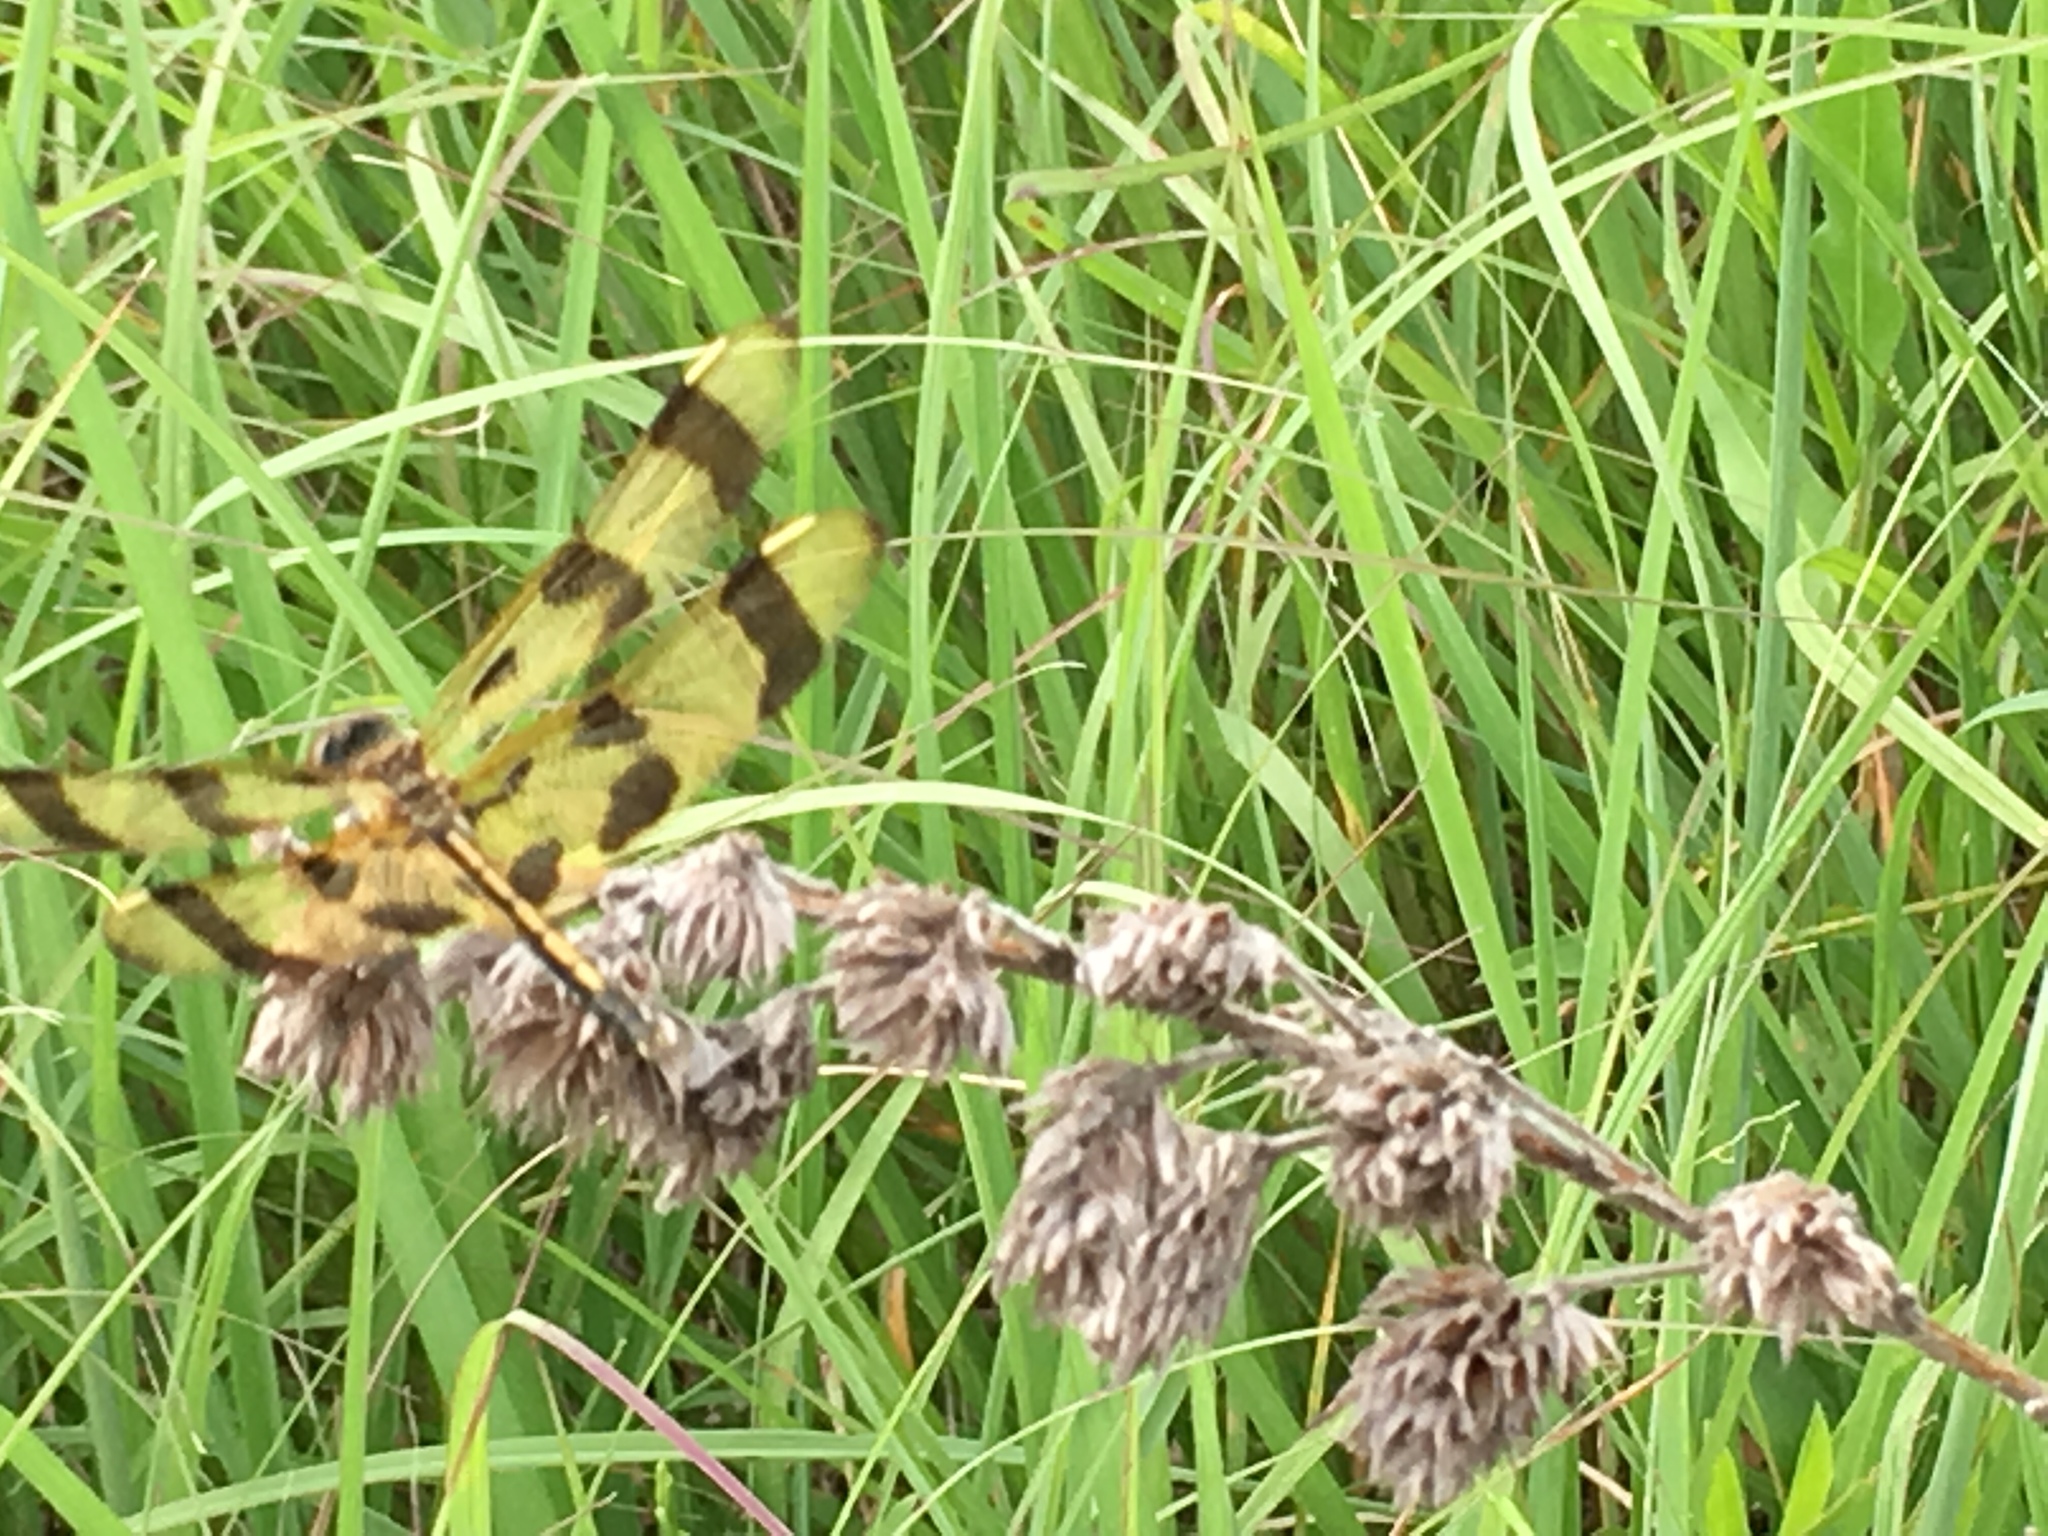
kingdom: Animalia
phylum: Arthropoda
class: Insecta
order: Odonata
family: Libellulidae
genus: Celithemis
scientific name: Celithemis eponina
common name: Halloween pennant
